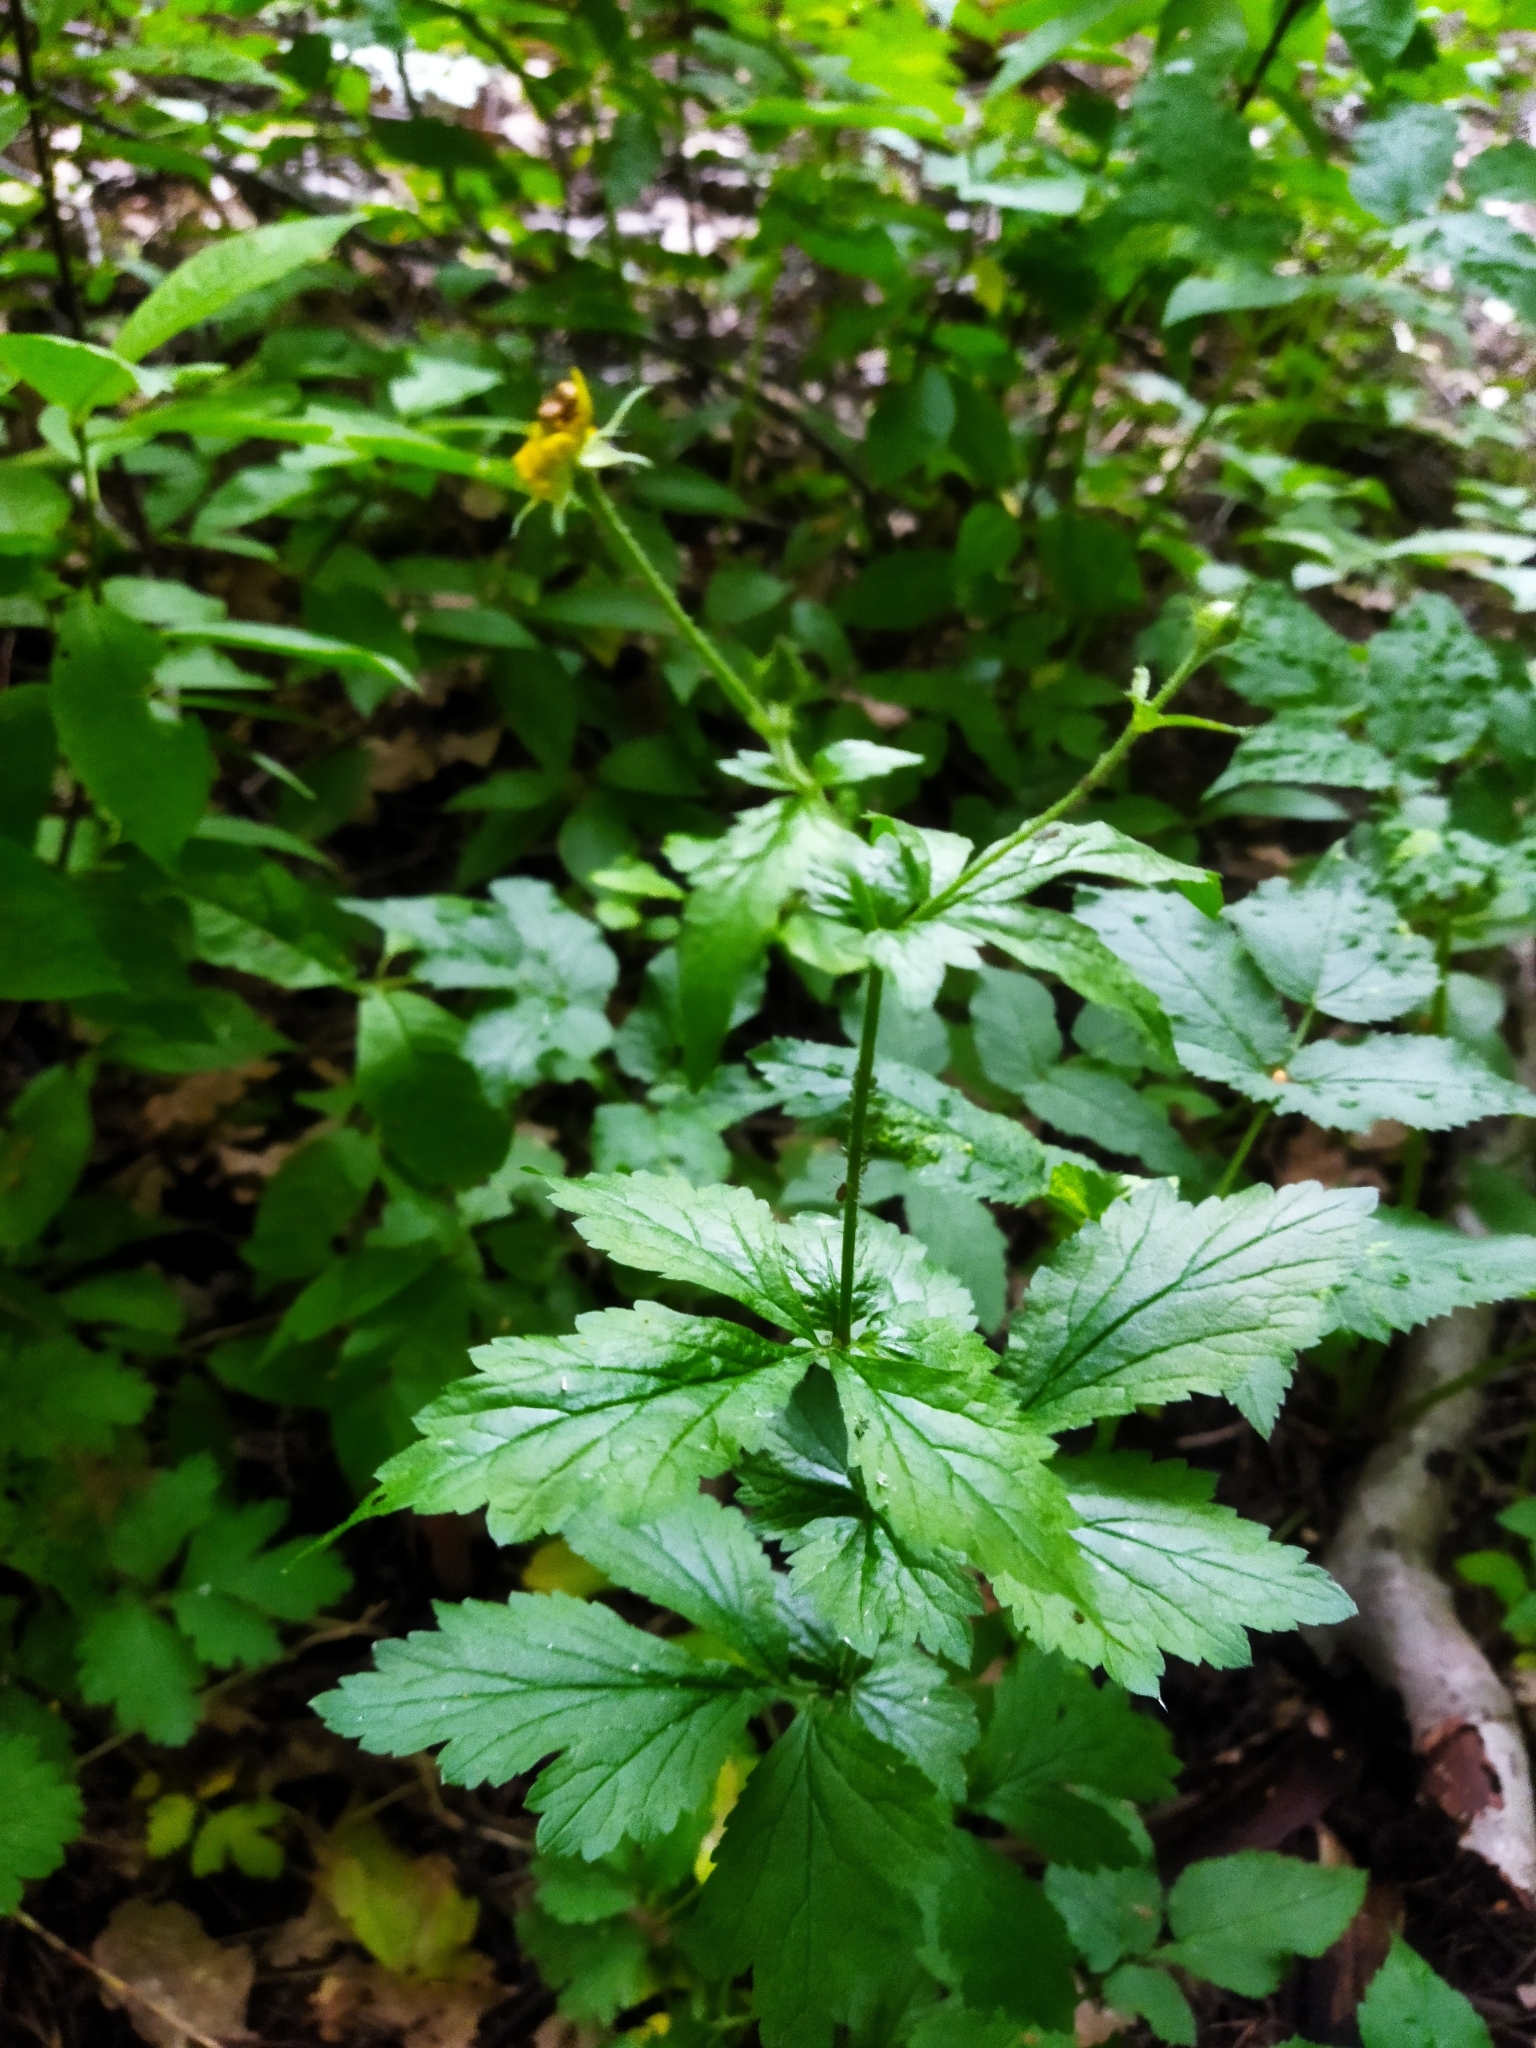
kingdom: Plantae
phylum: Tracheophyta
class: Magnoliopsida
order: Rosales
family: Rosaceae
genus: Geum
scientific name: Geum urbanum
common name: Wood avens
